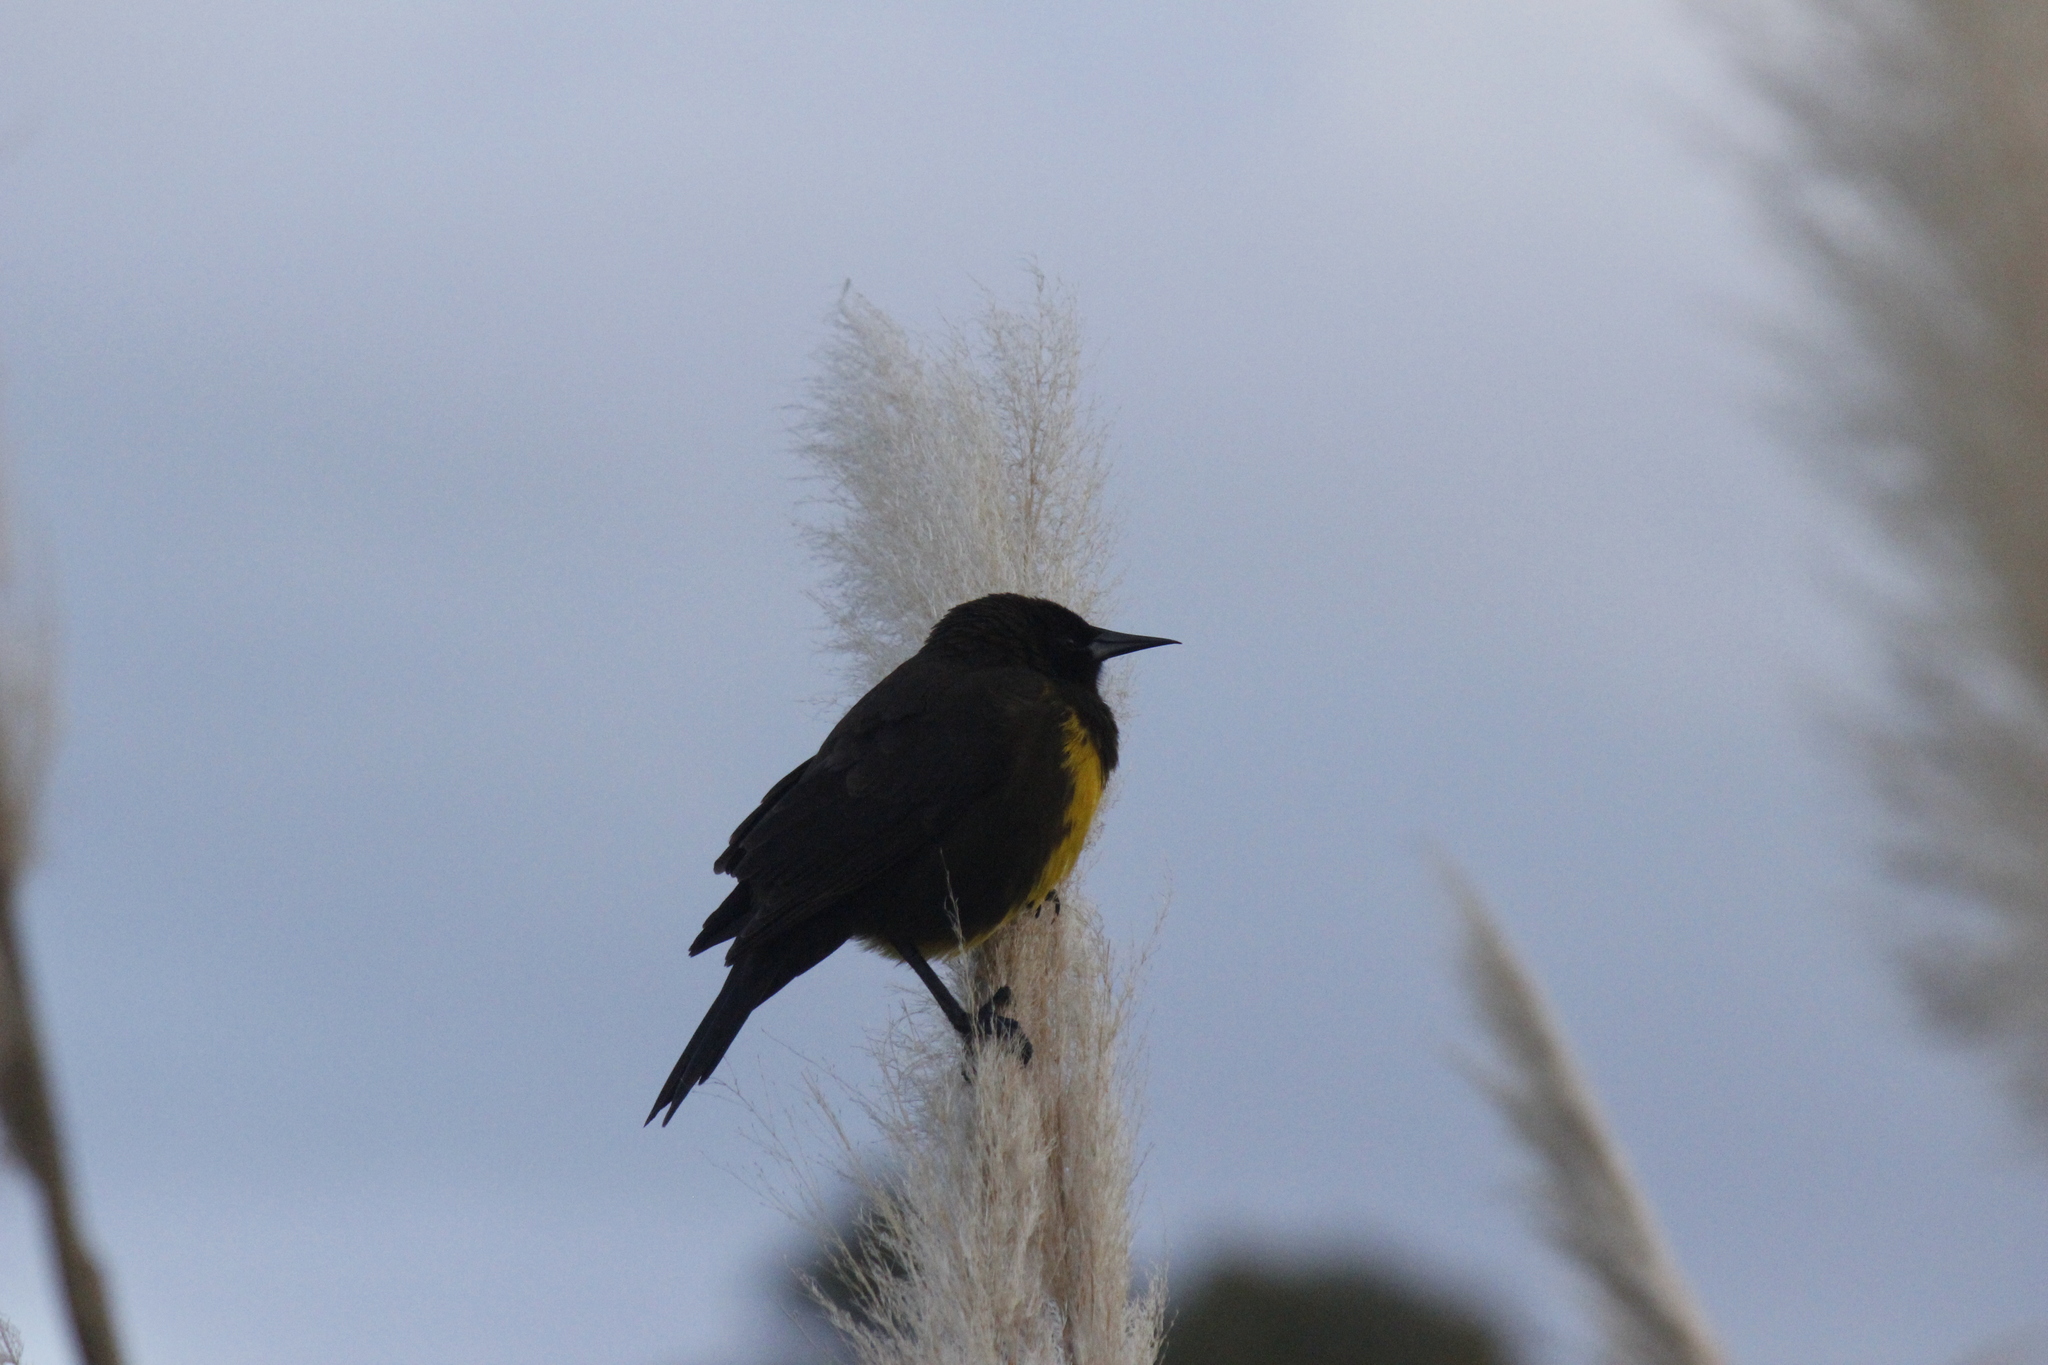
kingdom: Animalia
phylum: Chordata
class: Aves
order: Passeriformes
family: Icteridae
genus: Pseudoleistes
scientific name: Pseudoleistes virescens
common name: Brown-and-yellow marshbird
